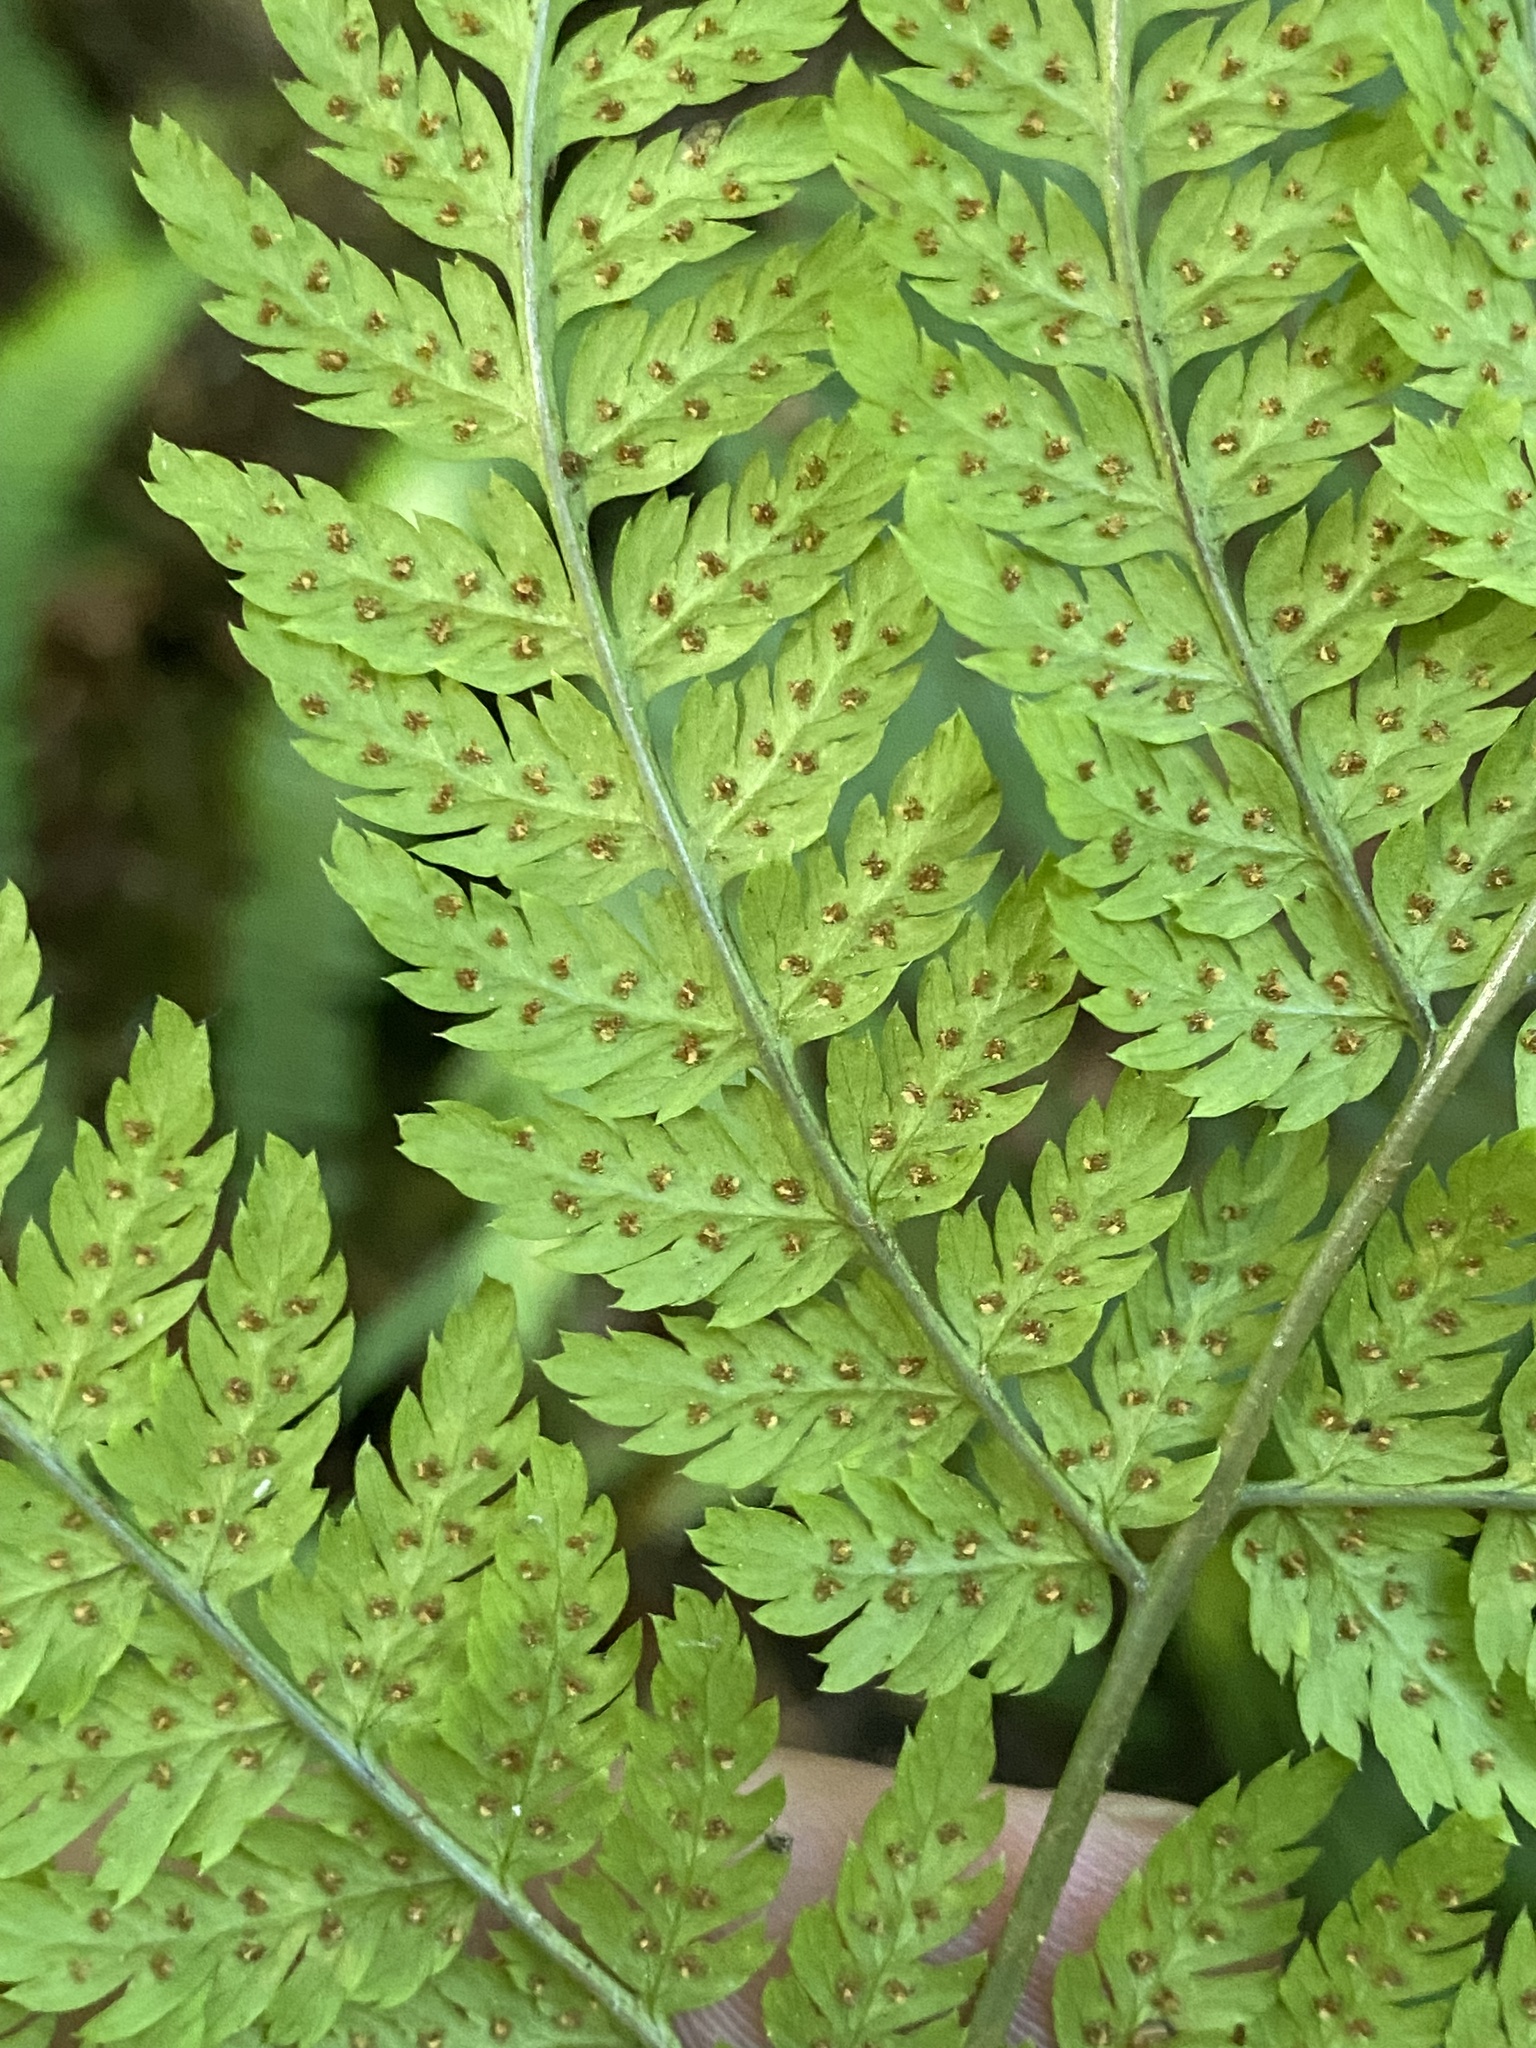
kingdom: Plantae
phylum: Tracheophyta
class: Polypodiopsida
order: Polypodiales
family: Dryopteridaceae
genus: Dryopteris
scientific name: Dryopteris expansa
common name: Northern buckler fern
